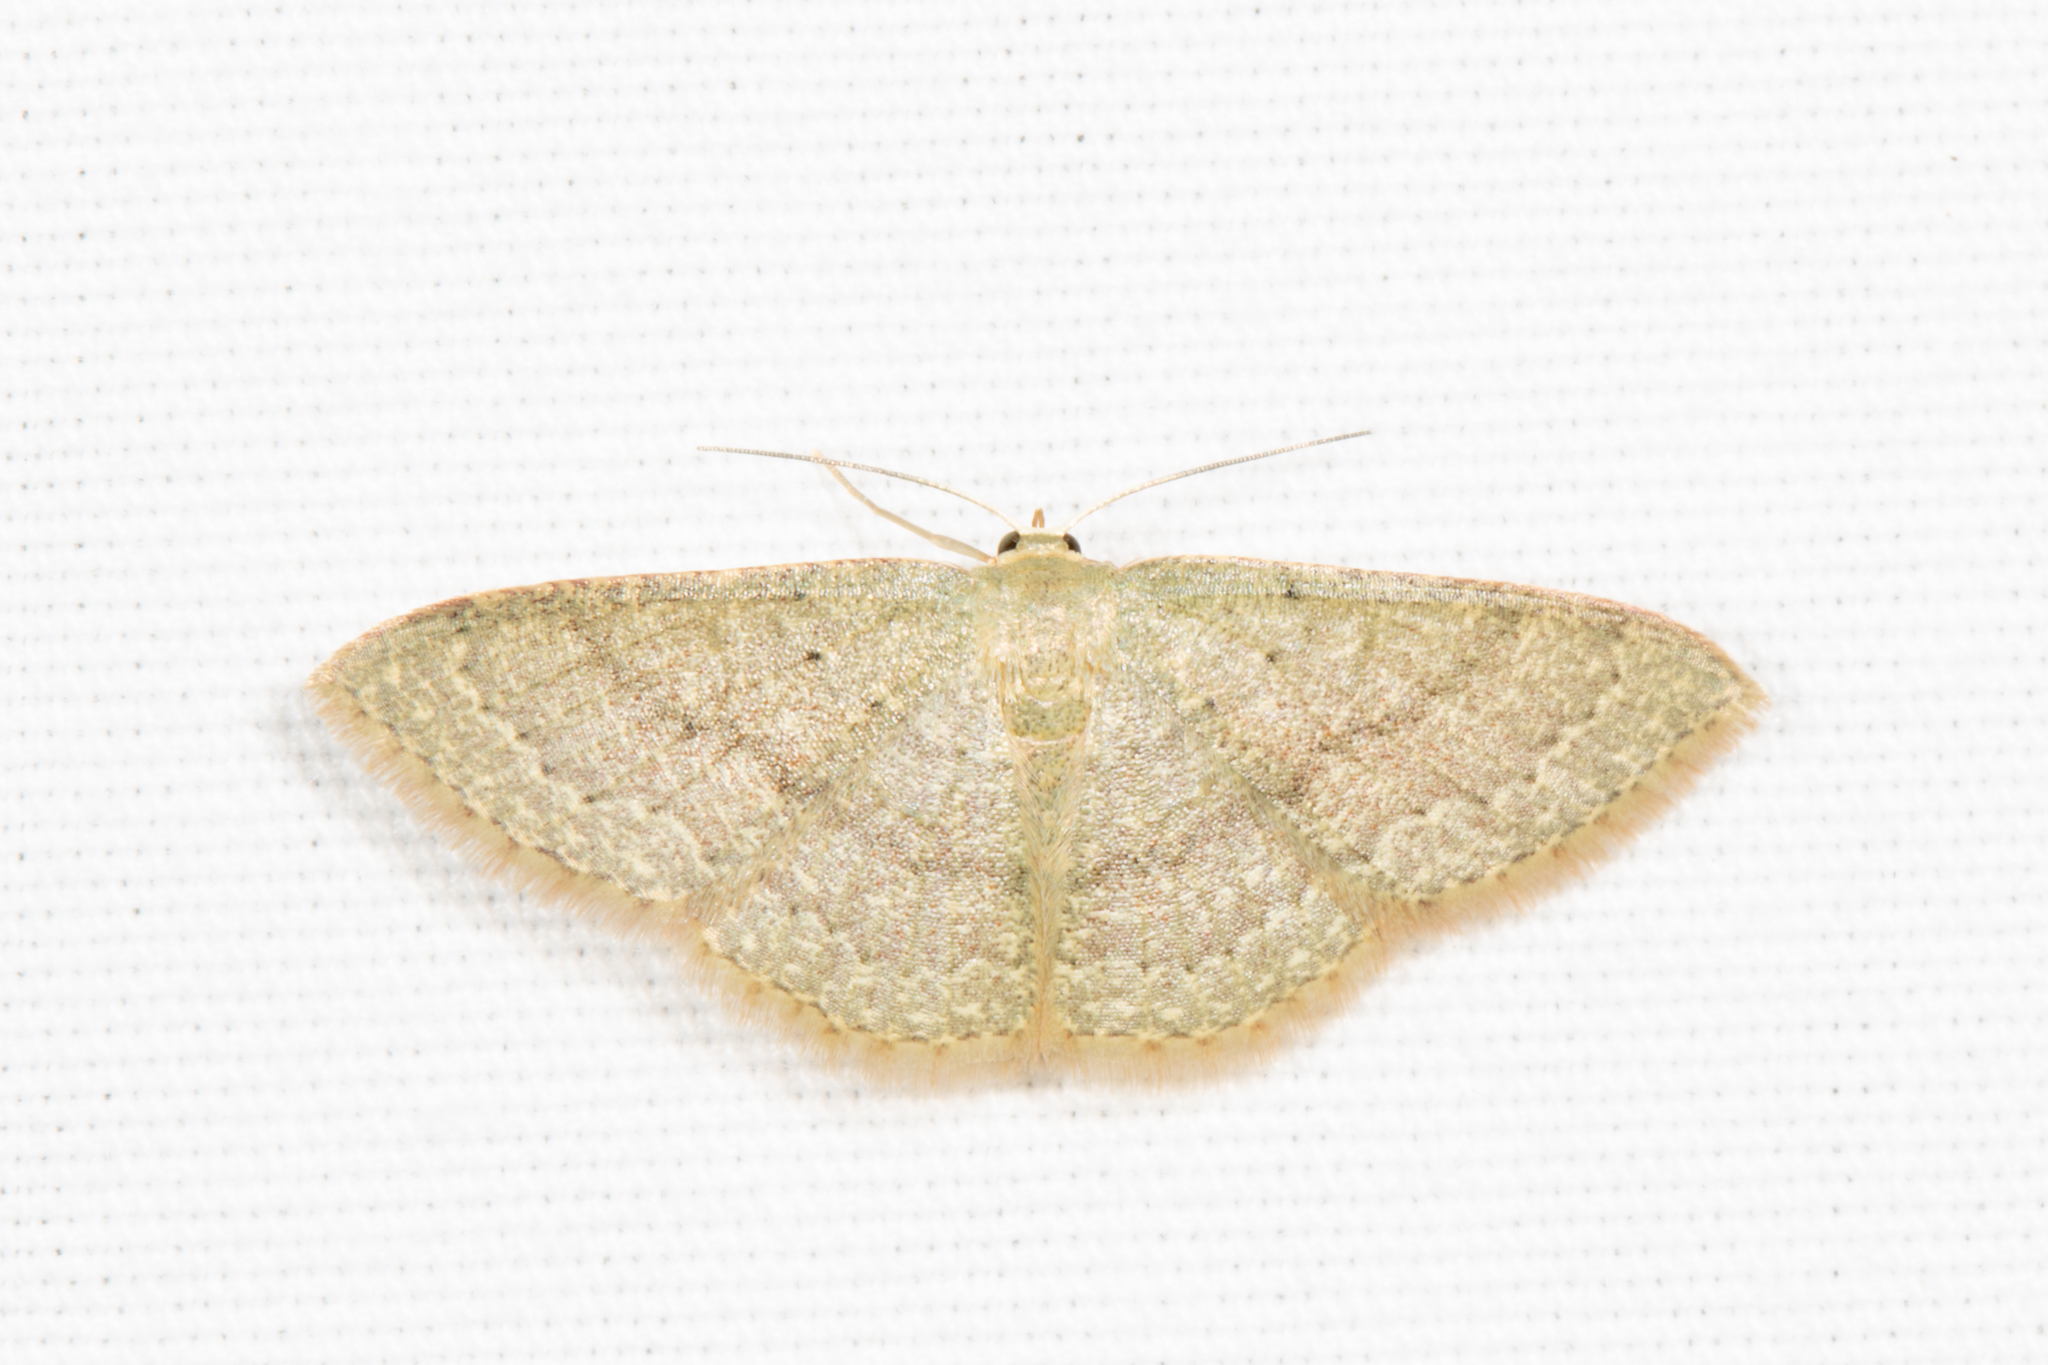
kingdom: Animalia
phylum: Arthropoda
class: Insecta
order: Lepidoptera
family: Geometridae
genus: Pleuroprucha
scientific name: Pleuroprucha insulsaria
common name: Common tan wave
